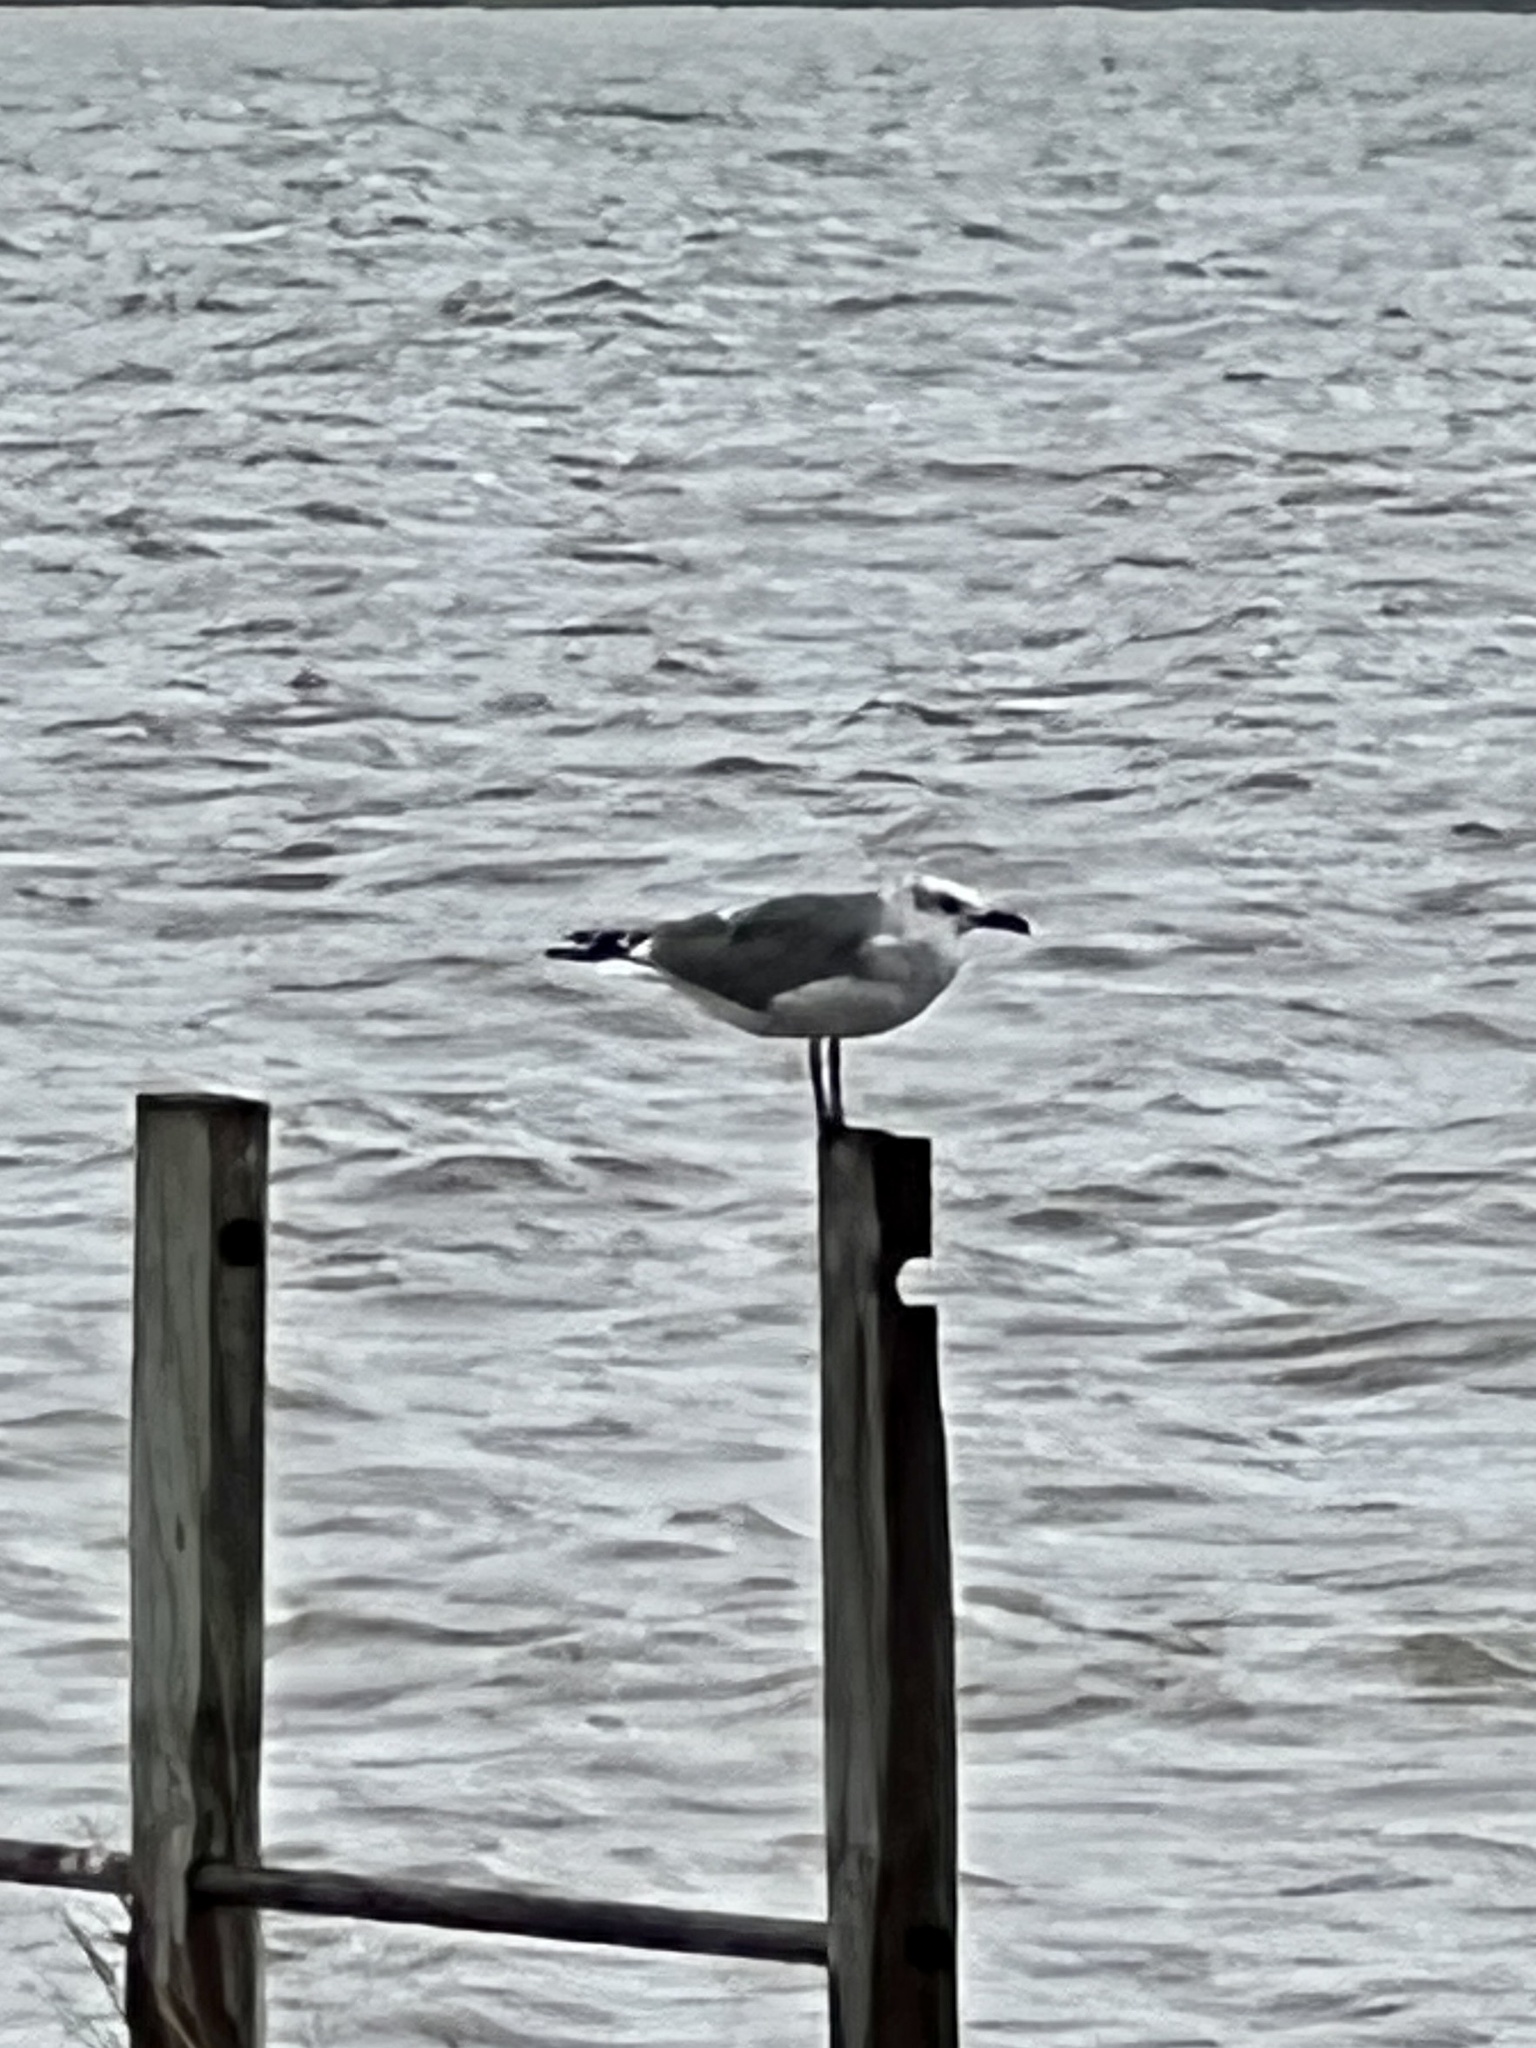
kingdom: Animalia
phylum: Chordata
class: Aves
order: Charadriiformes
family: Laridae
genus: Leucophaeus
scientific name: Leucophaeus atricilla
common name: Laughing gull
